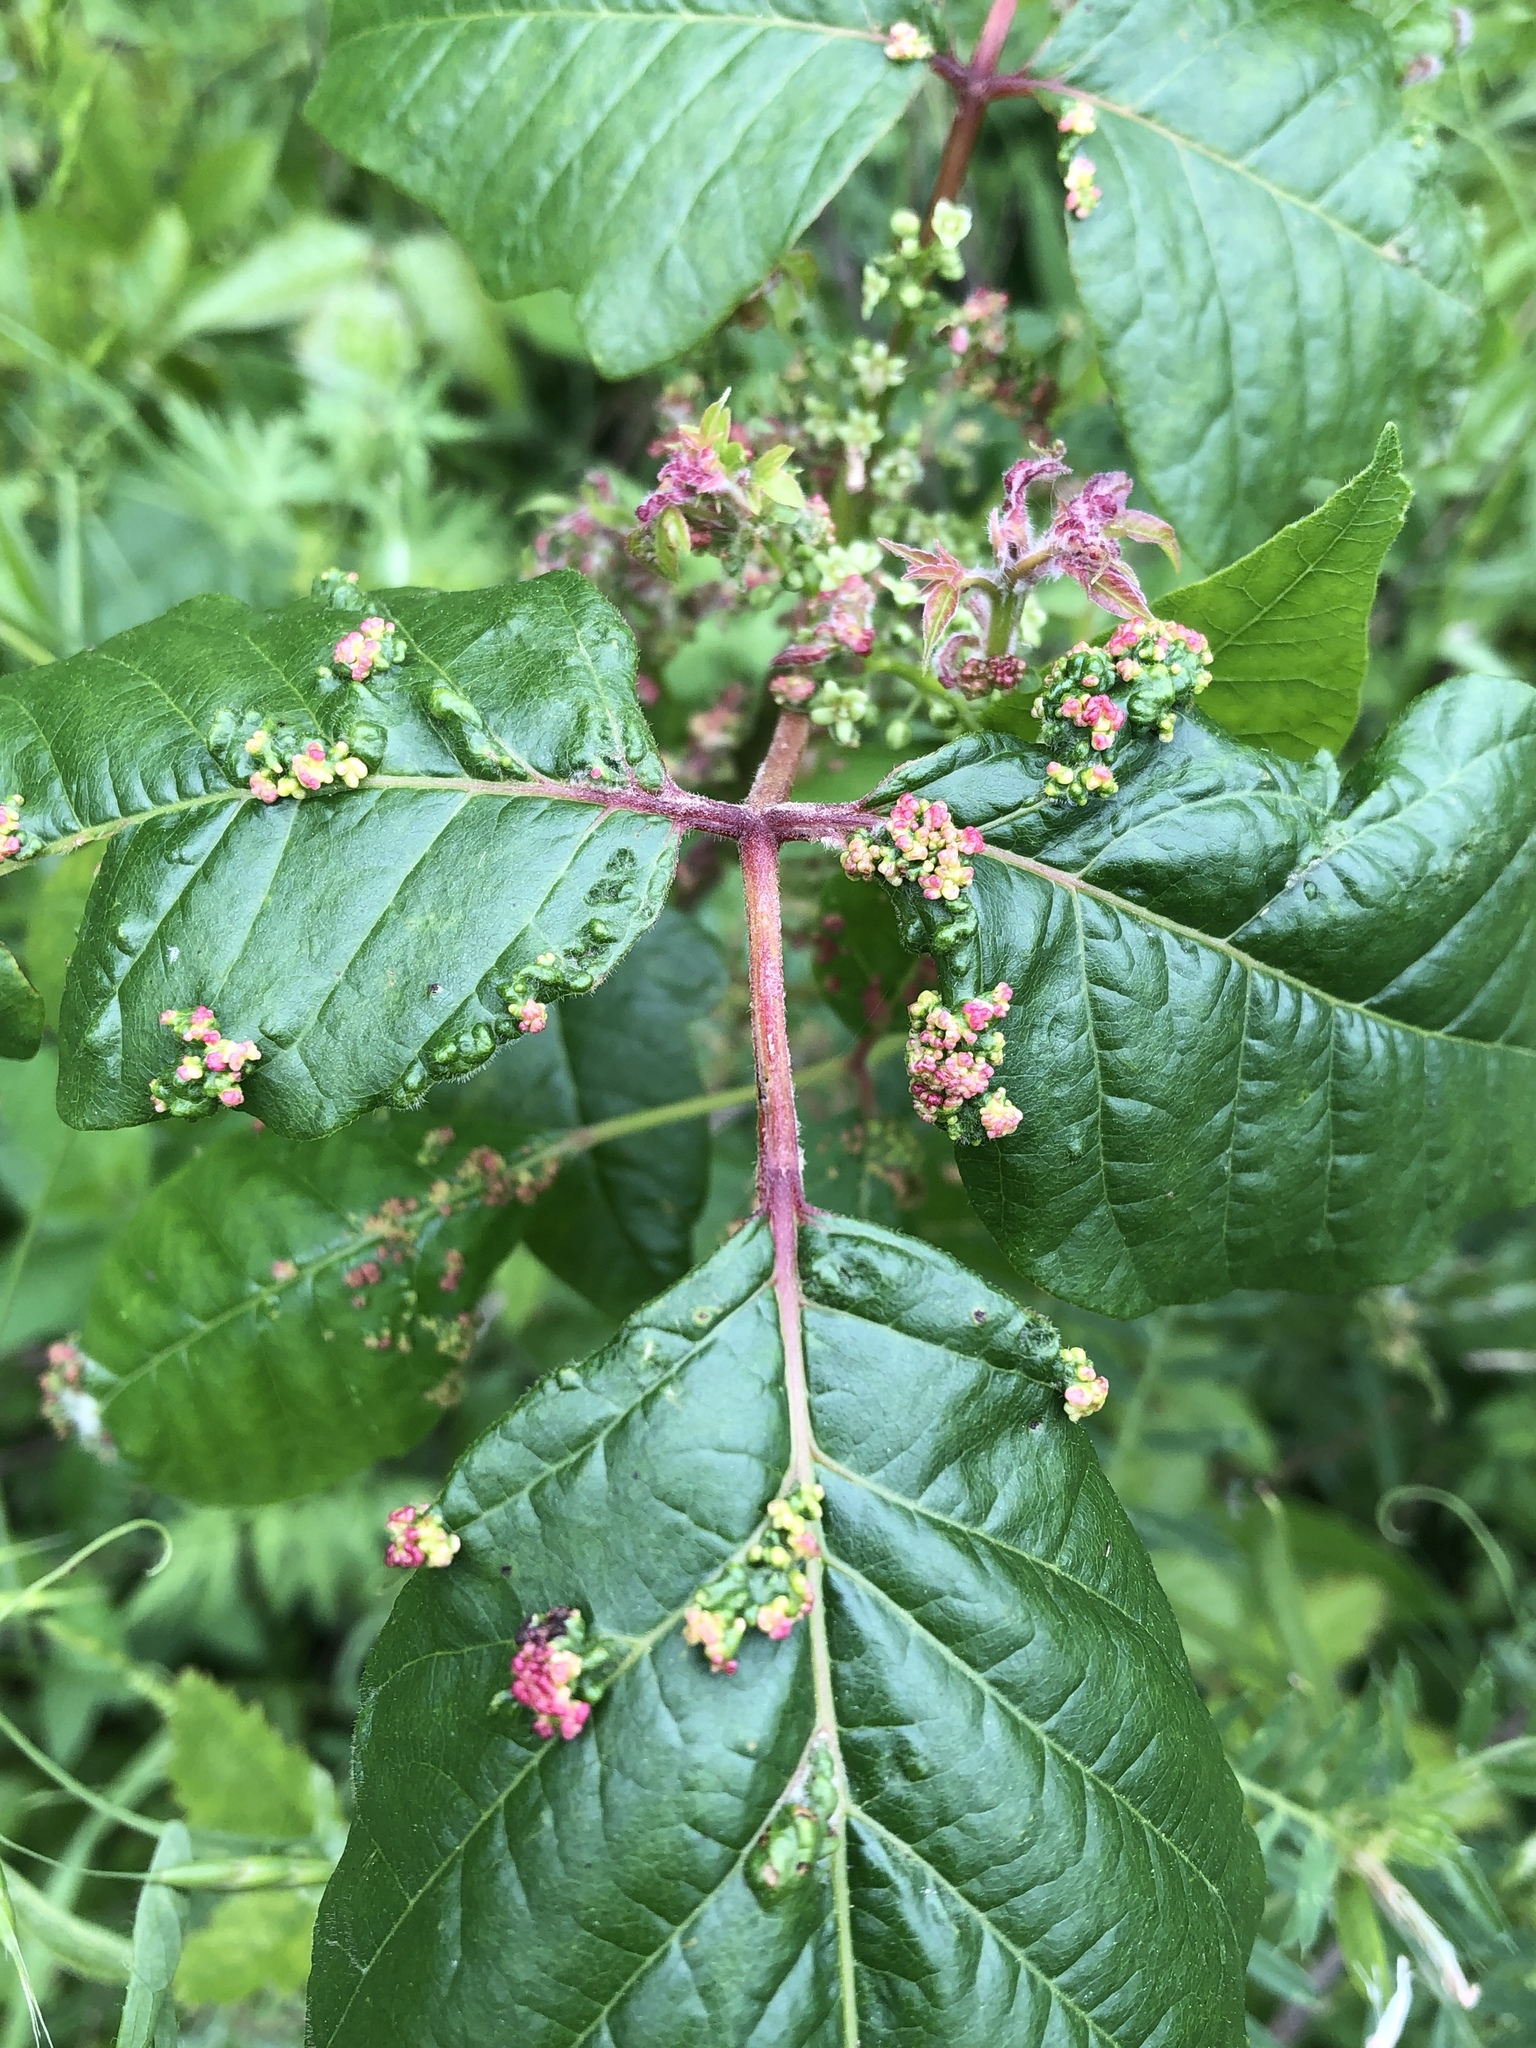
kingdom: Animalia
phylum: Arthropoda
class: Arachnida
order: Trombidiformes
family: Eriophyidae
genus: Aculops
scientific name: Aculops
